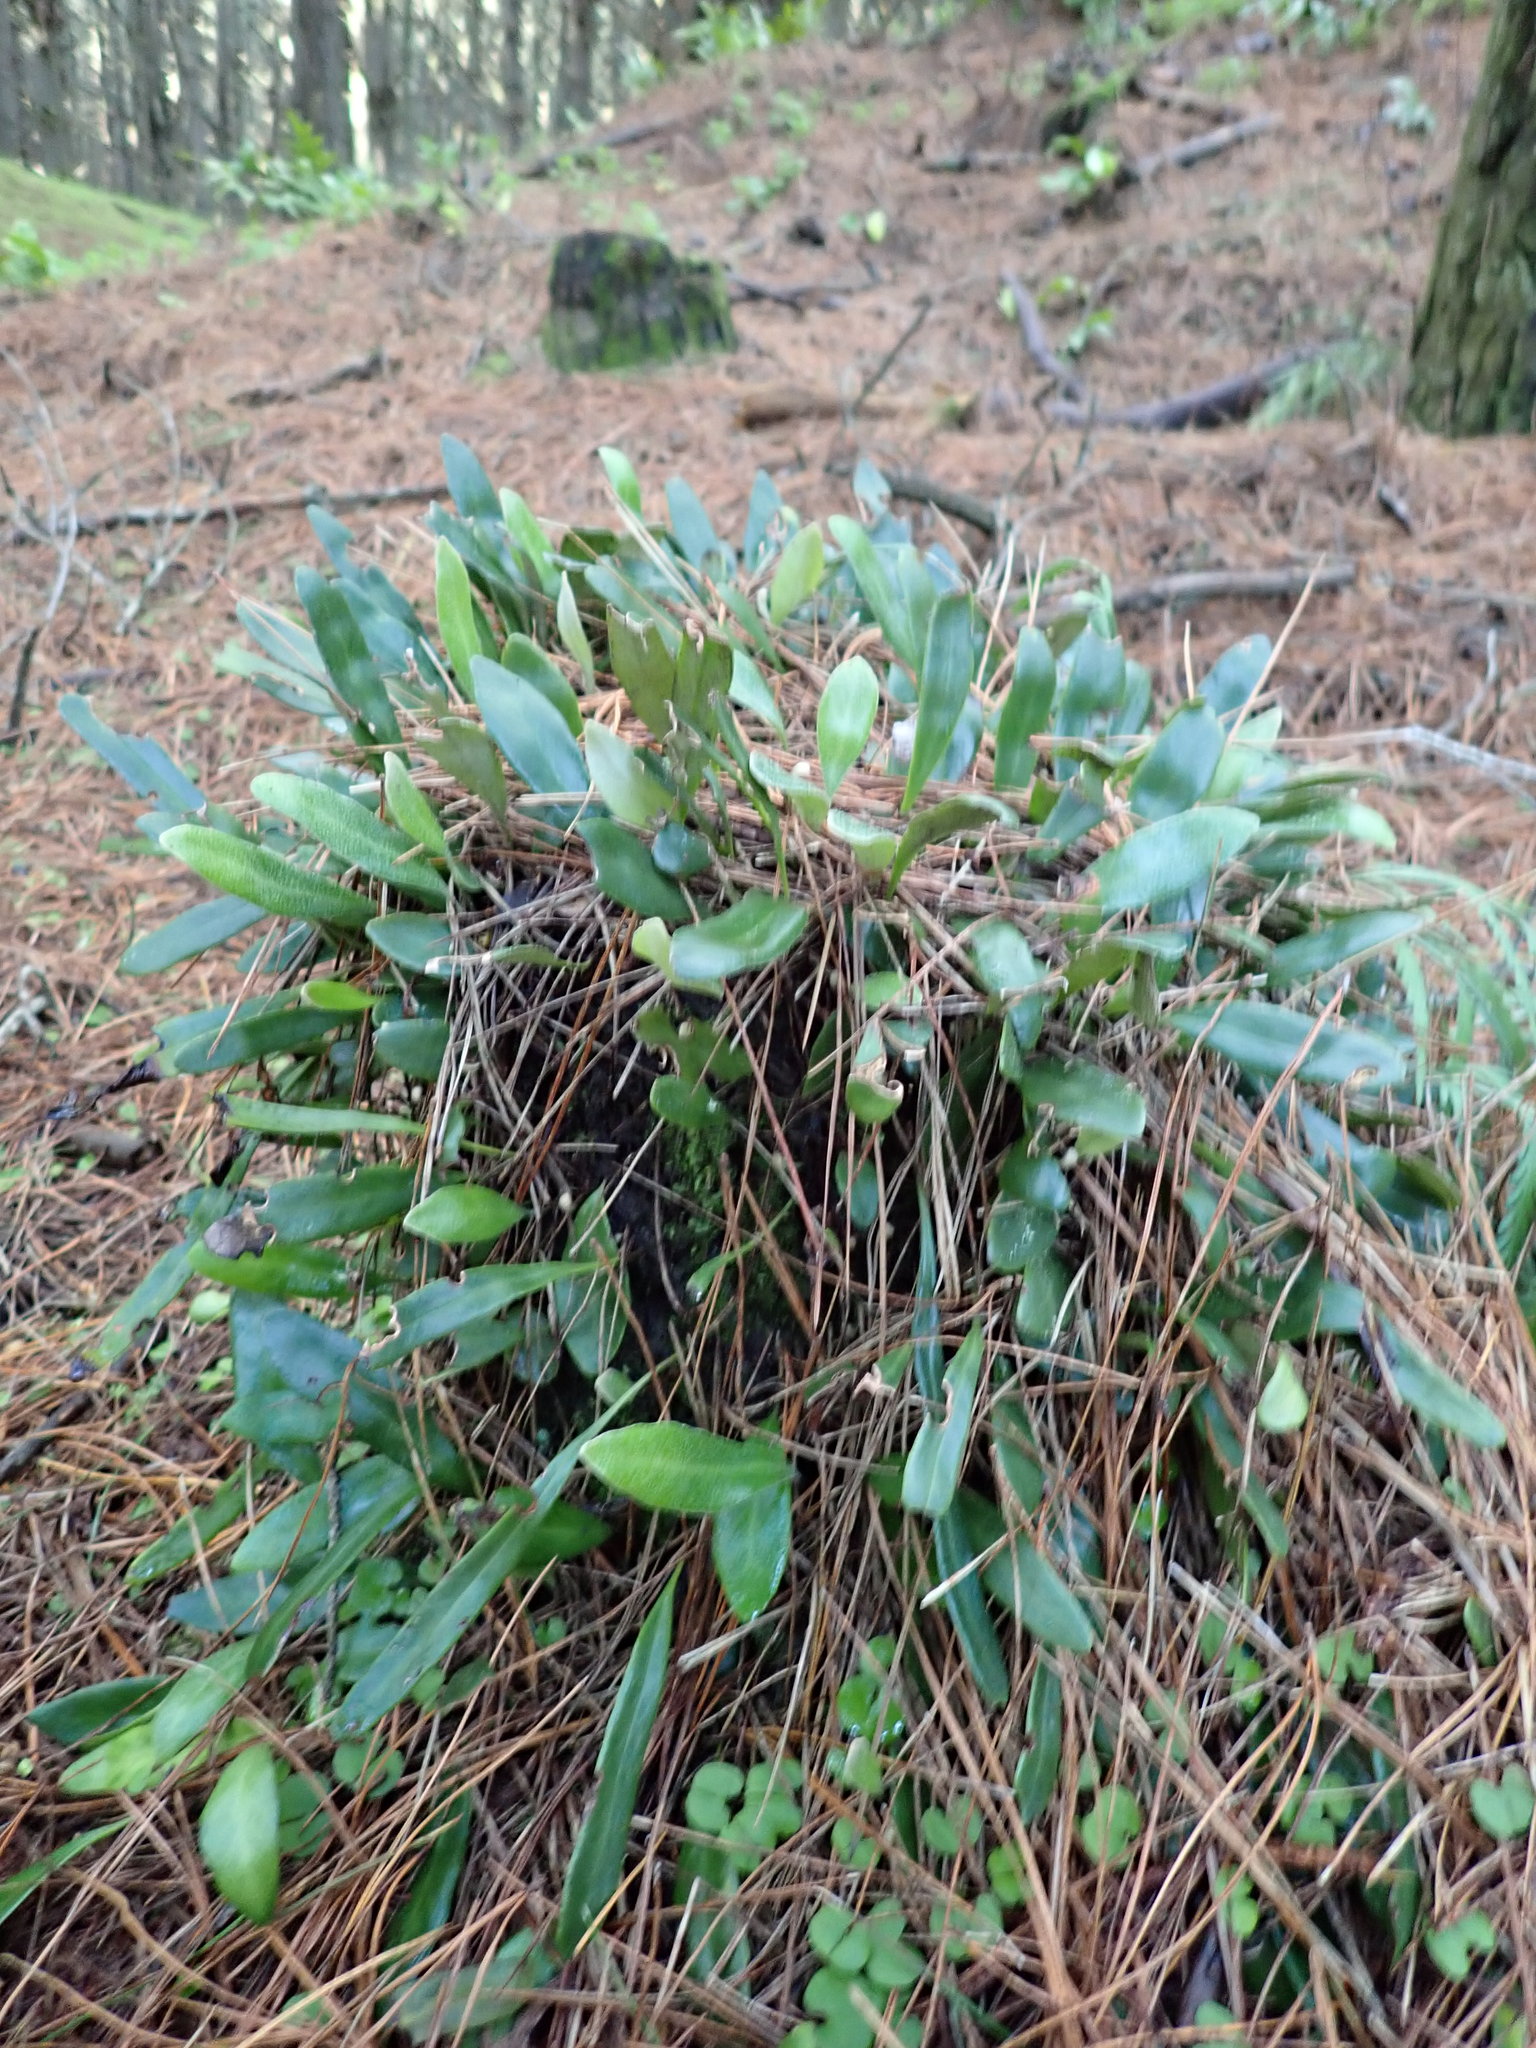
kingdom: Plantae
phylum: Tracheophyta
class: Polypodiopsida
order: Polypodiales
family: Polypodiaceae
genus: Pyrrosia
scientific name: Pyrrosia eleagnifolia
